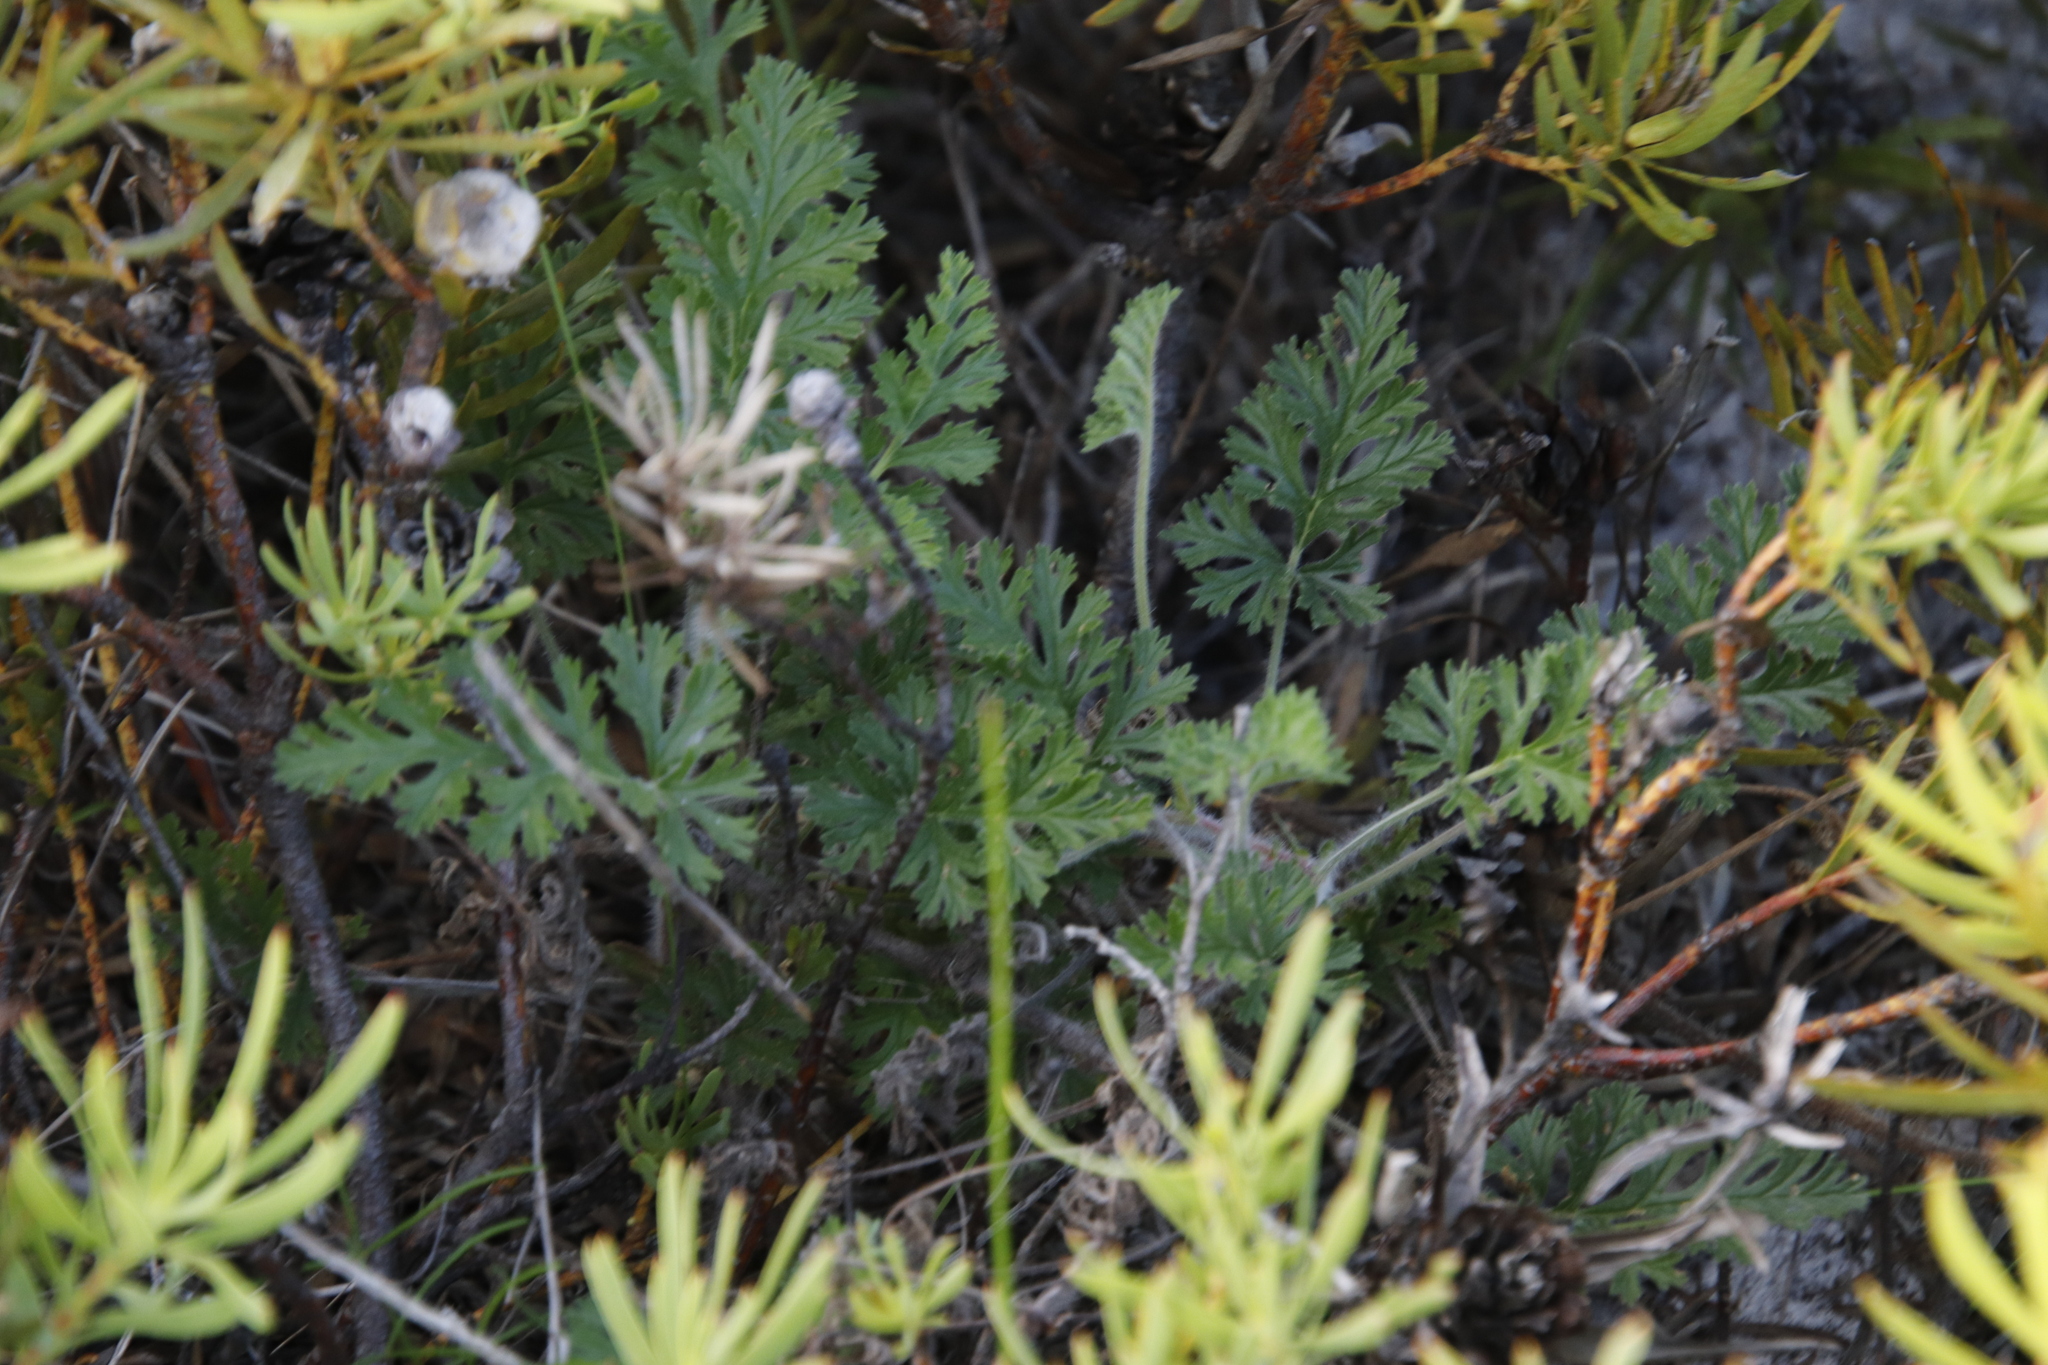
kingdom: Plantae
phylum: Tracheophyta
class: Magnoliopsida
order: Geraniales
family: Geraniaceae
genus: Pelargonium
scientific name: Pelargonium myrrhifolium
